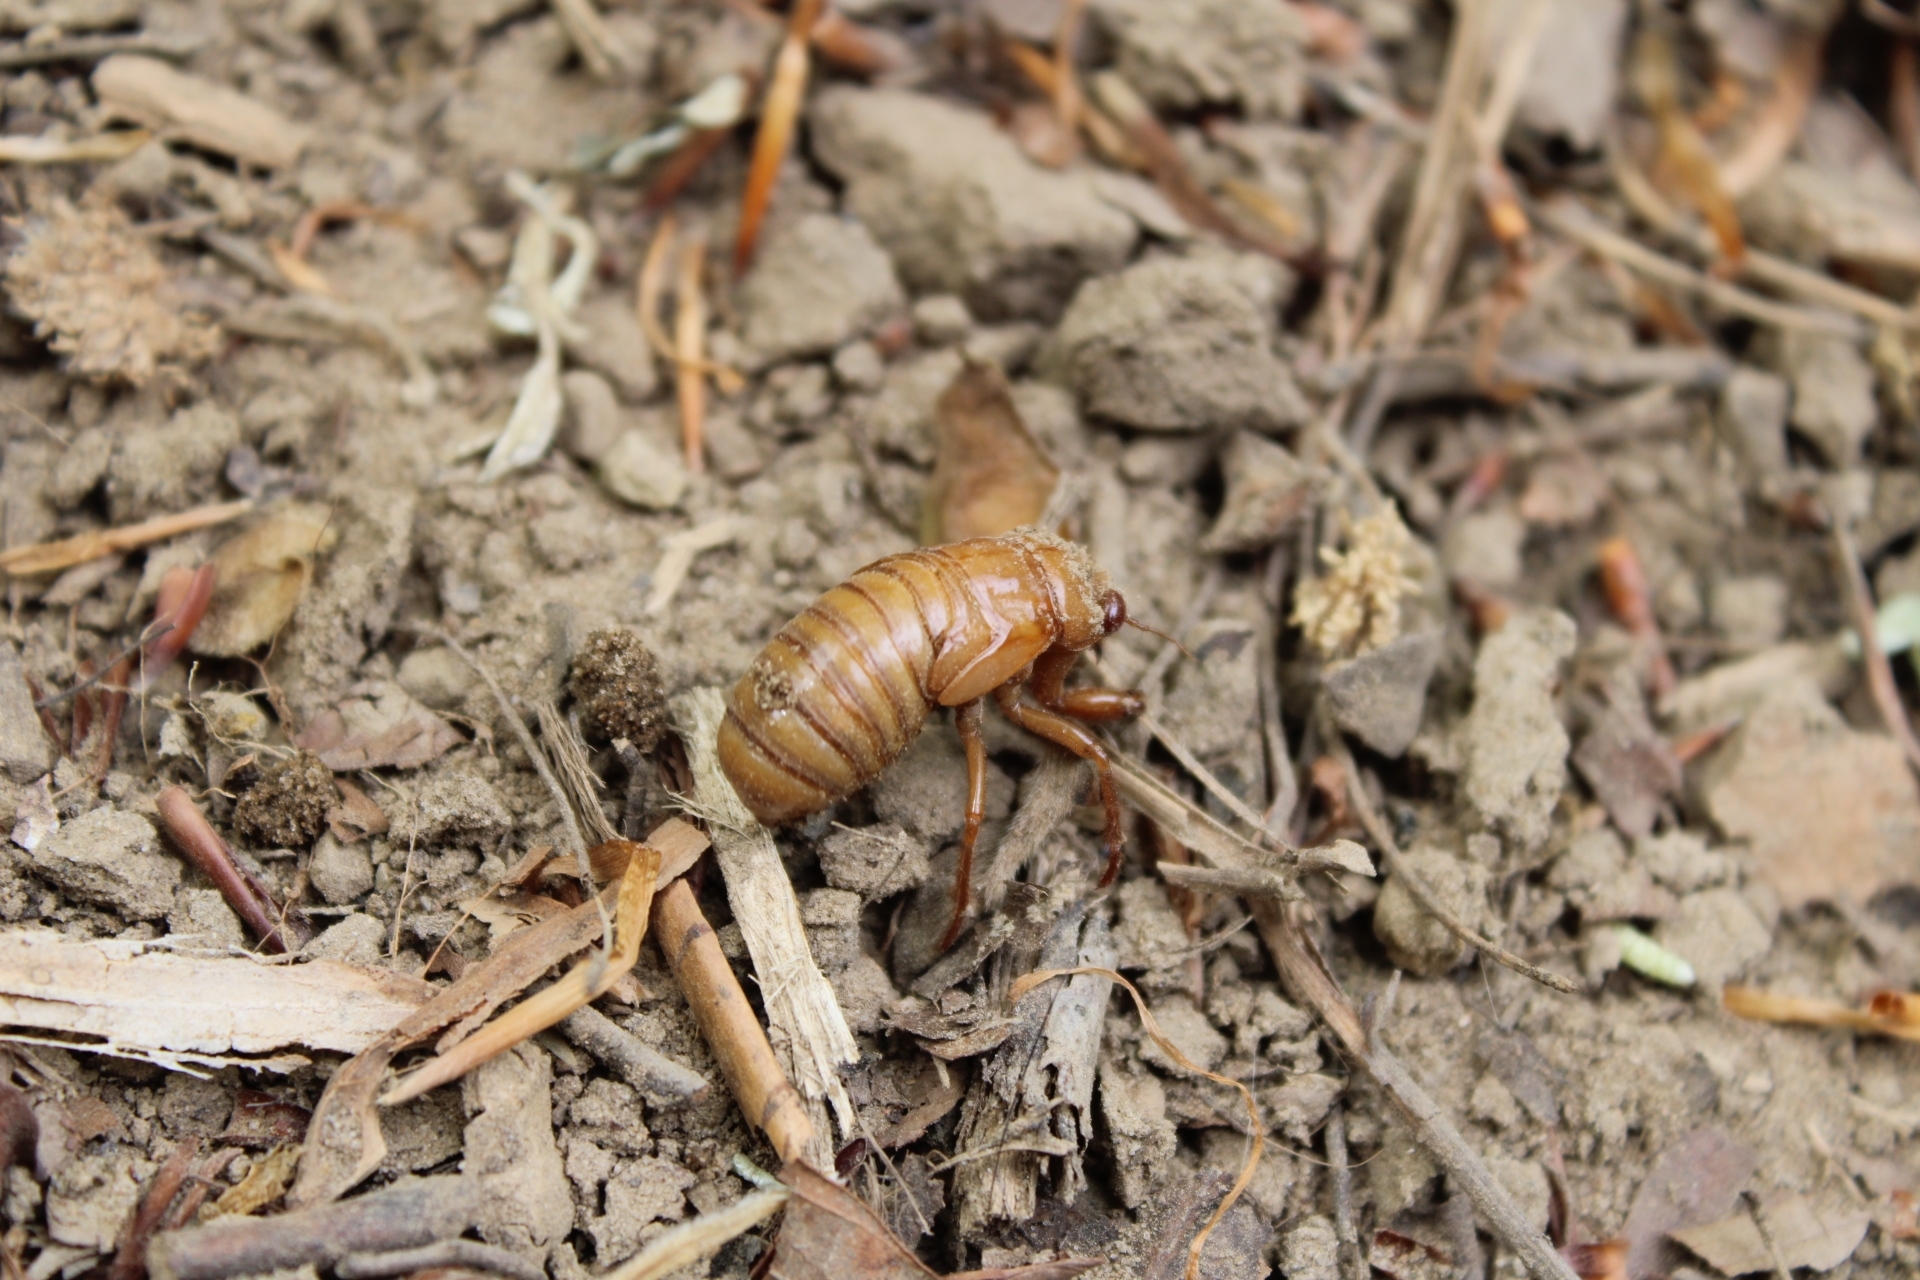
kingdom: Animalia
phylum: Arthropoda
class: Insecta
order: Hemiptera
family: Cicadidae
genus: Magicicada
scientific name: Magicicada
